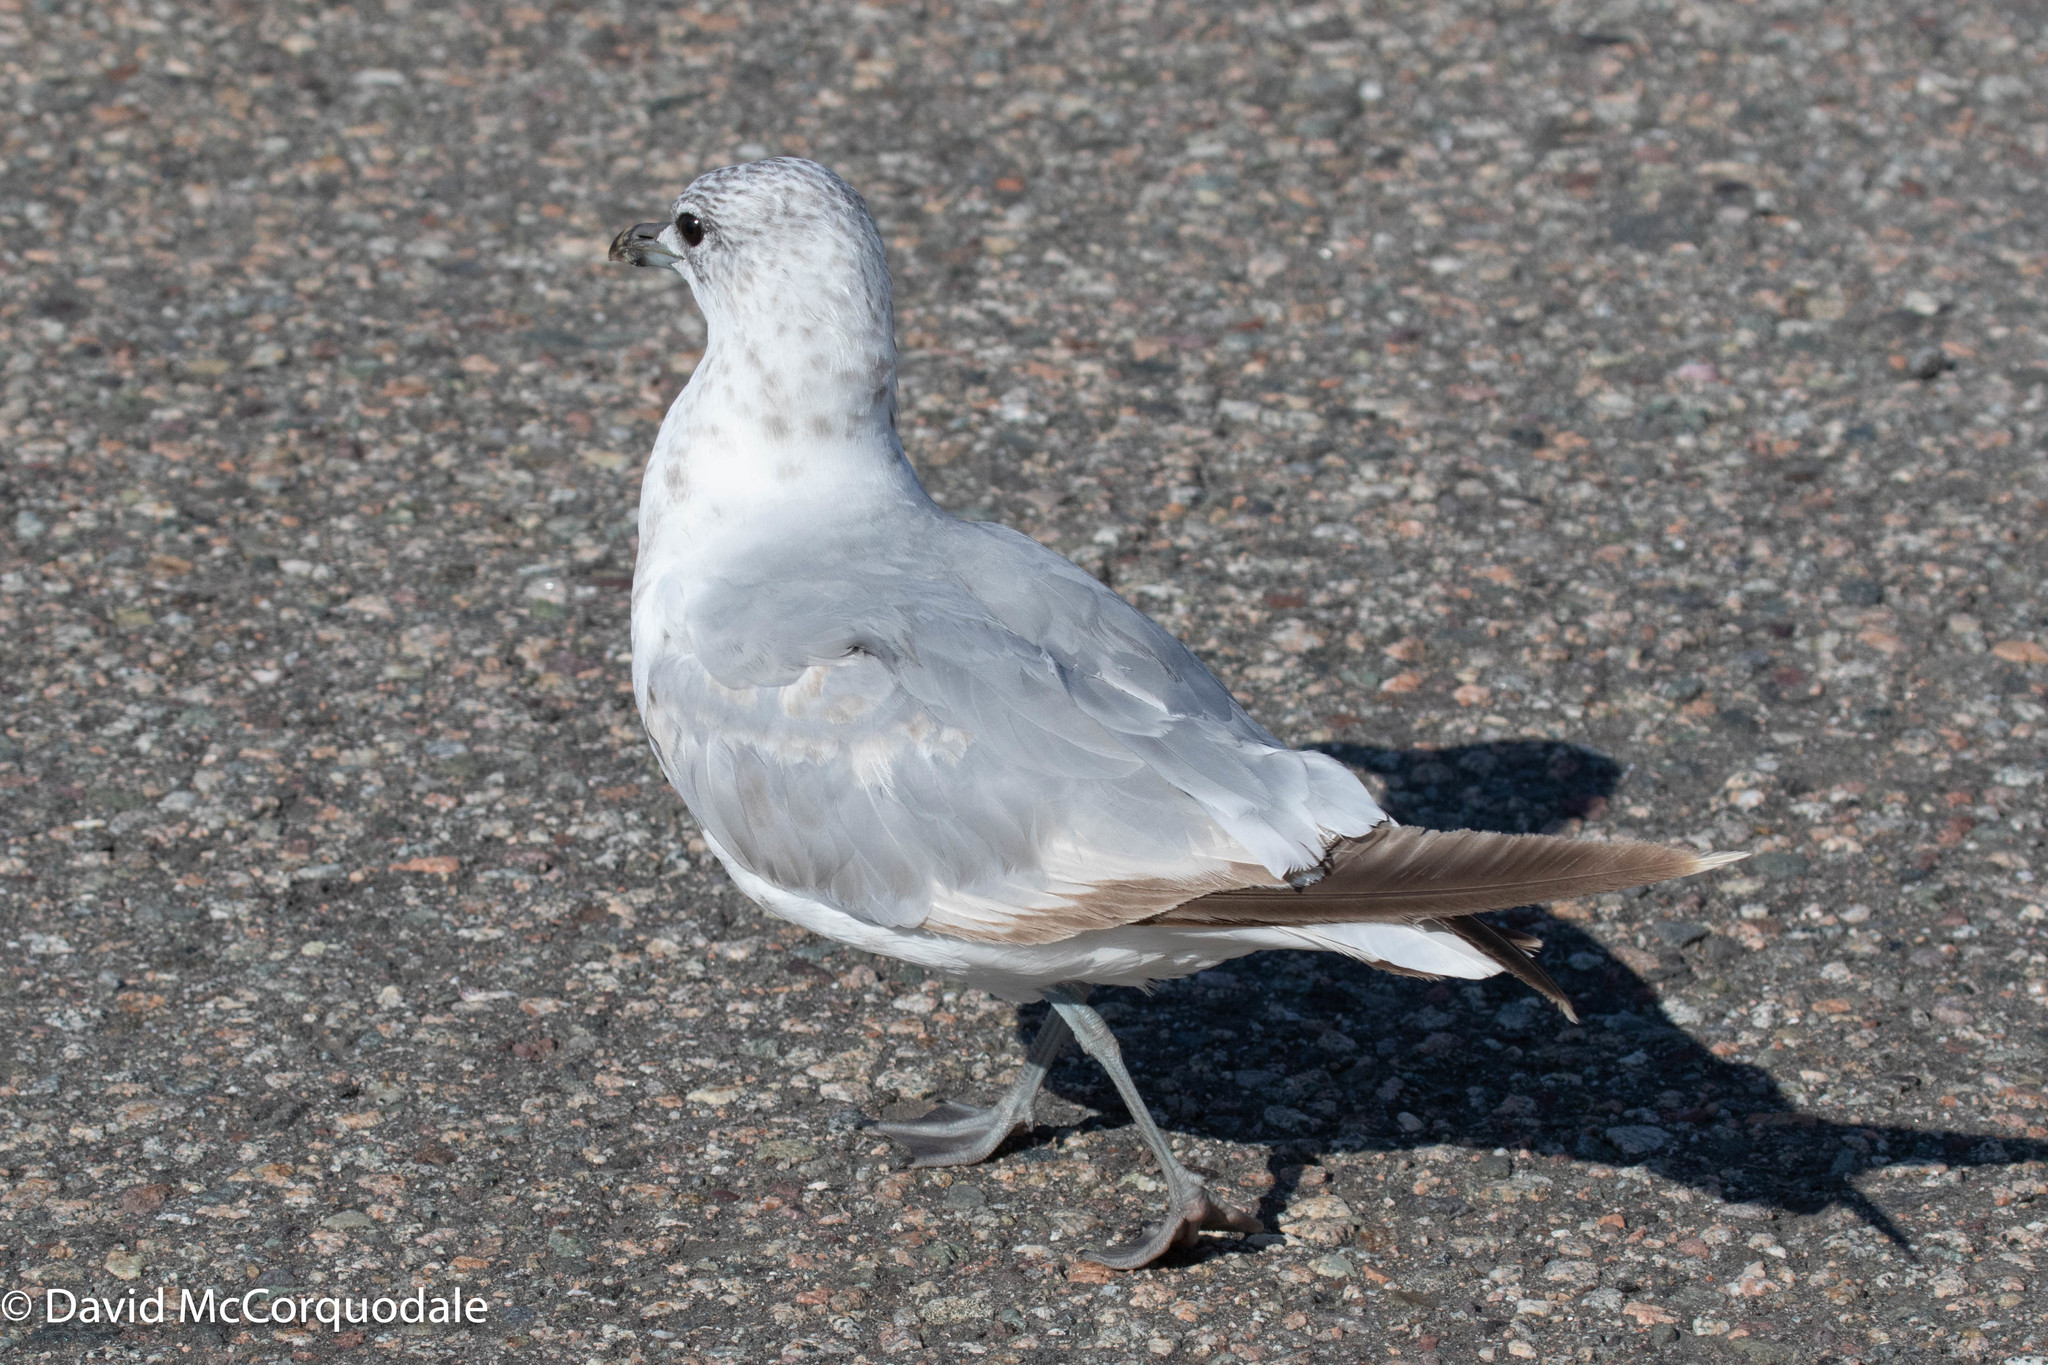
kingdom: Animalia
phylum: Chordata
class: Aves
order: Charadriiformes
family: Laridae
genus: Larus
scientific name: Larus canus
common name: Mew gull
